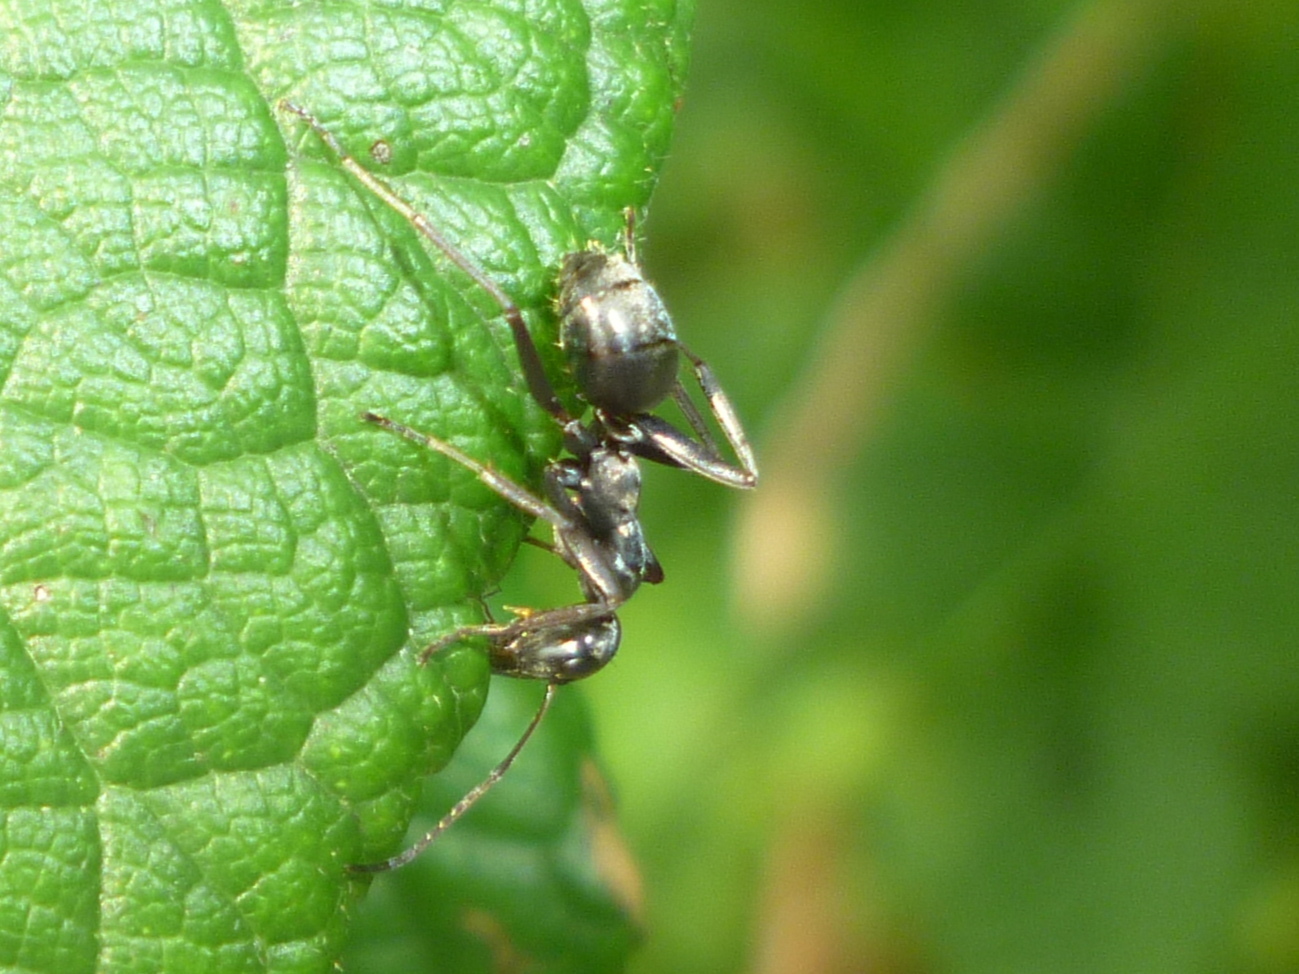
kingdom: Animalia
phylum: Arthropoda
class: Insecta
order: Hymenoptera
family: Formicidae
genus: Formica
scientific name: Formica
